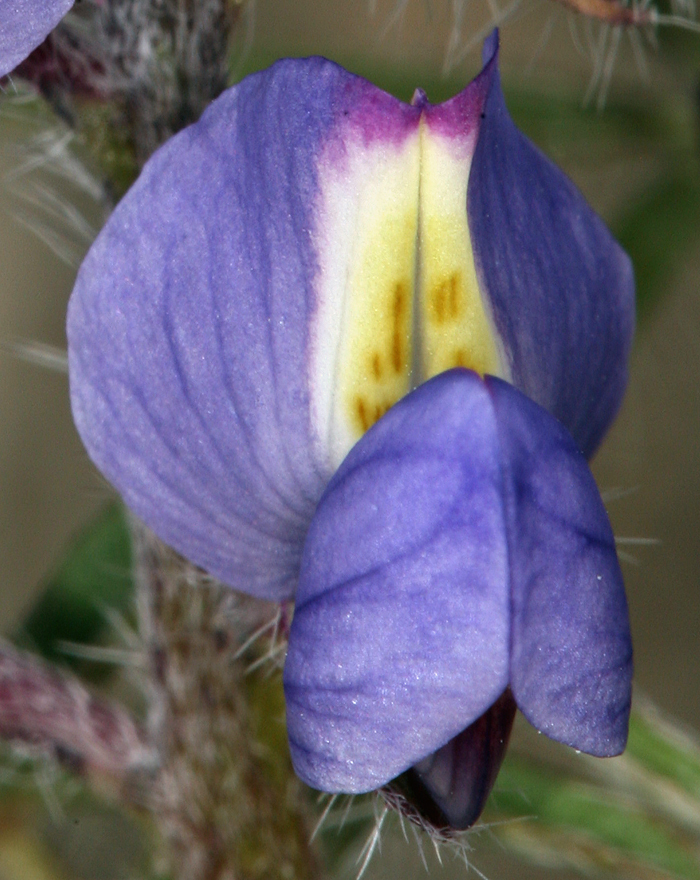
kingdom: Plantae
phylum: Tracheophyta
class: Magnoliopsida
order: Fabales
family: Fabaceae
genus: Lupinus
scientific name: Lupinus sparsiflorus
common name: Coulter's lupine
